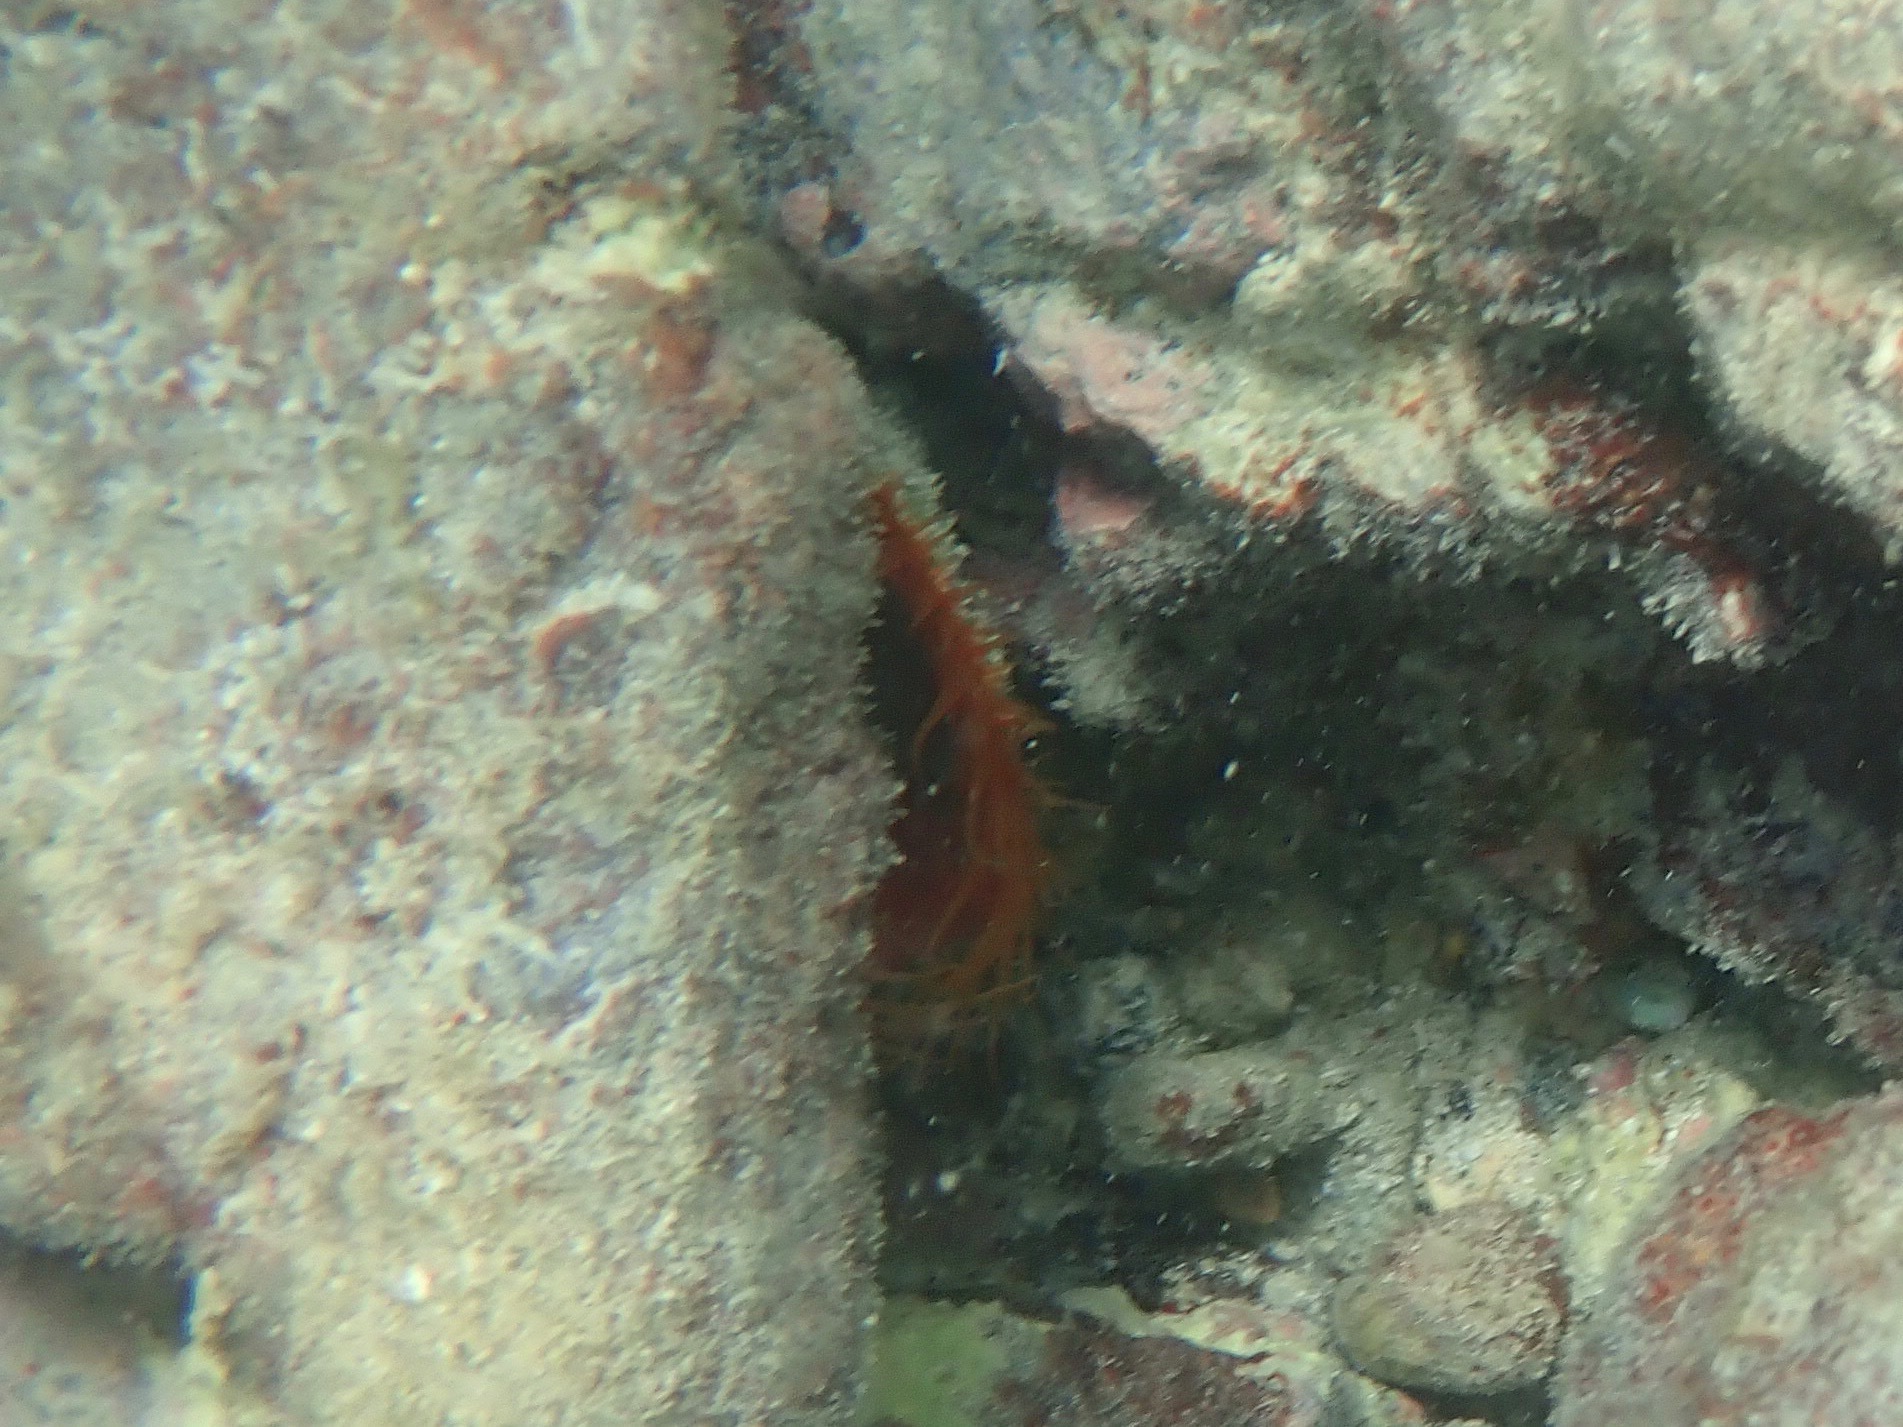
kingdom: Animalia
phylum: Mollusca
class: Bivalvia
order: Limida
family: Limidae
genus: Ctenoides
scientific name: Ctenoides scaber
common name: Rough fileclam
